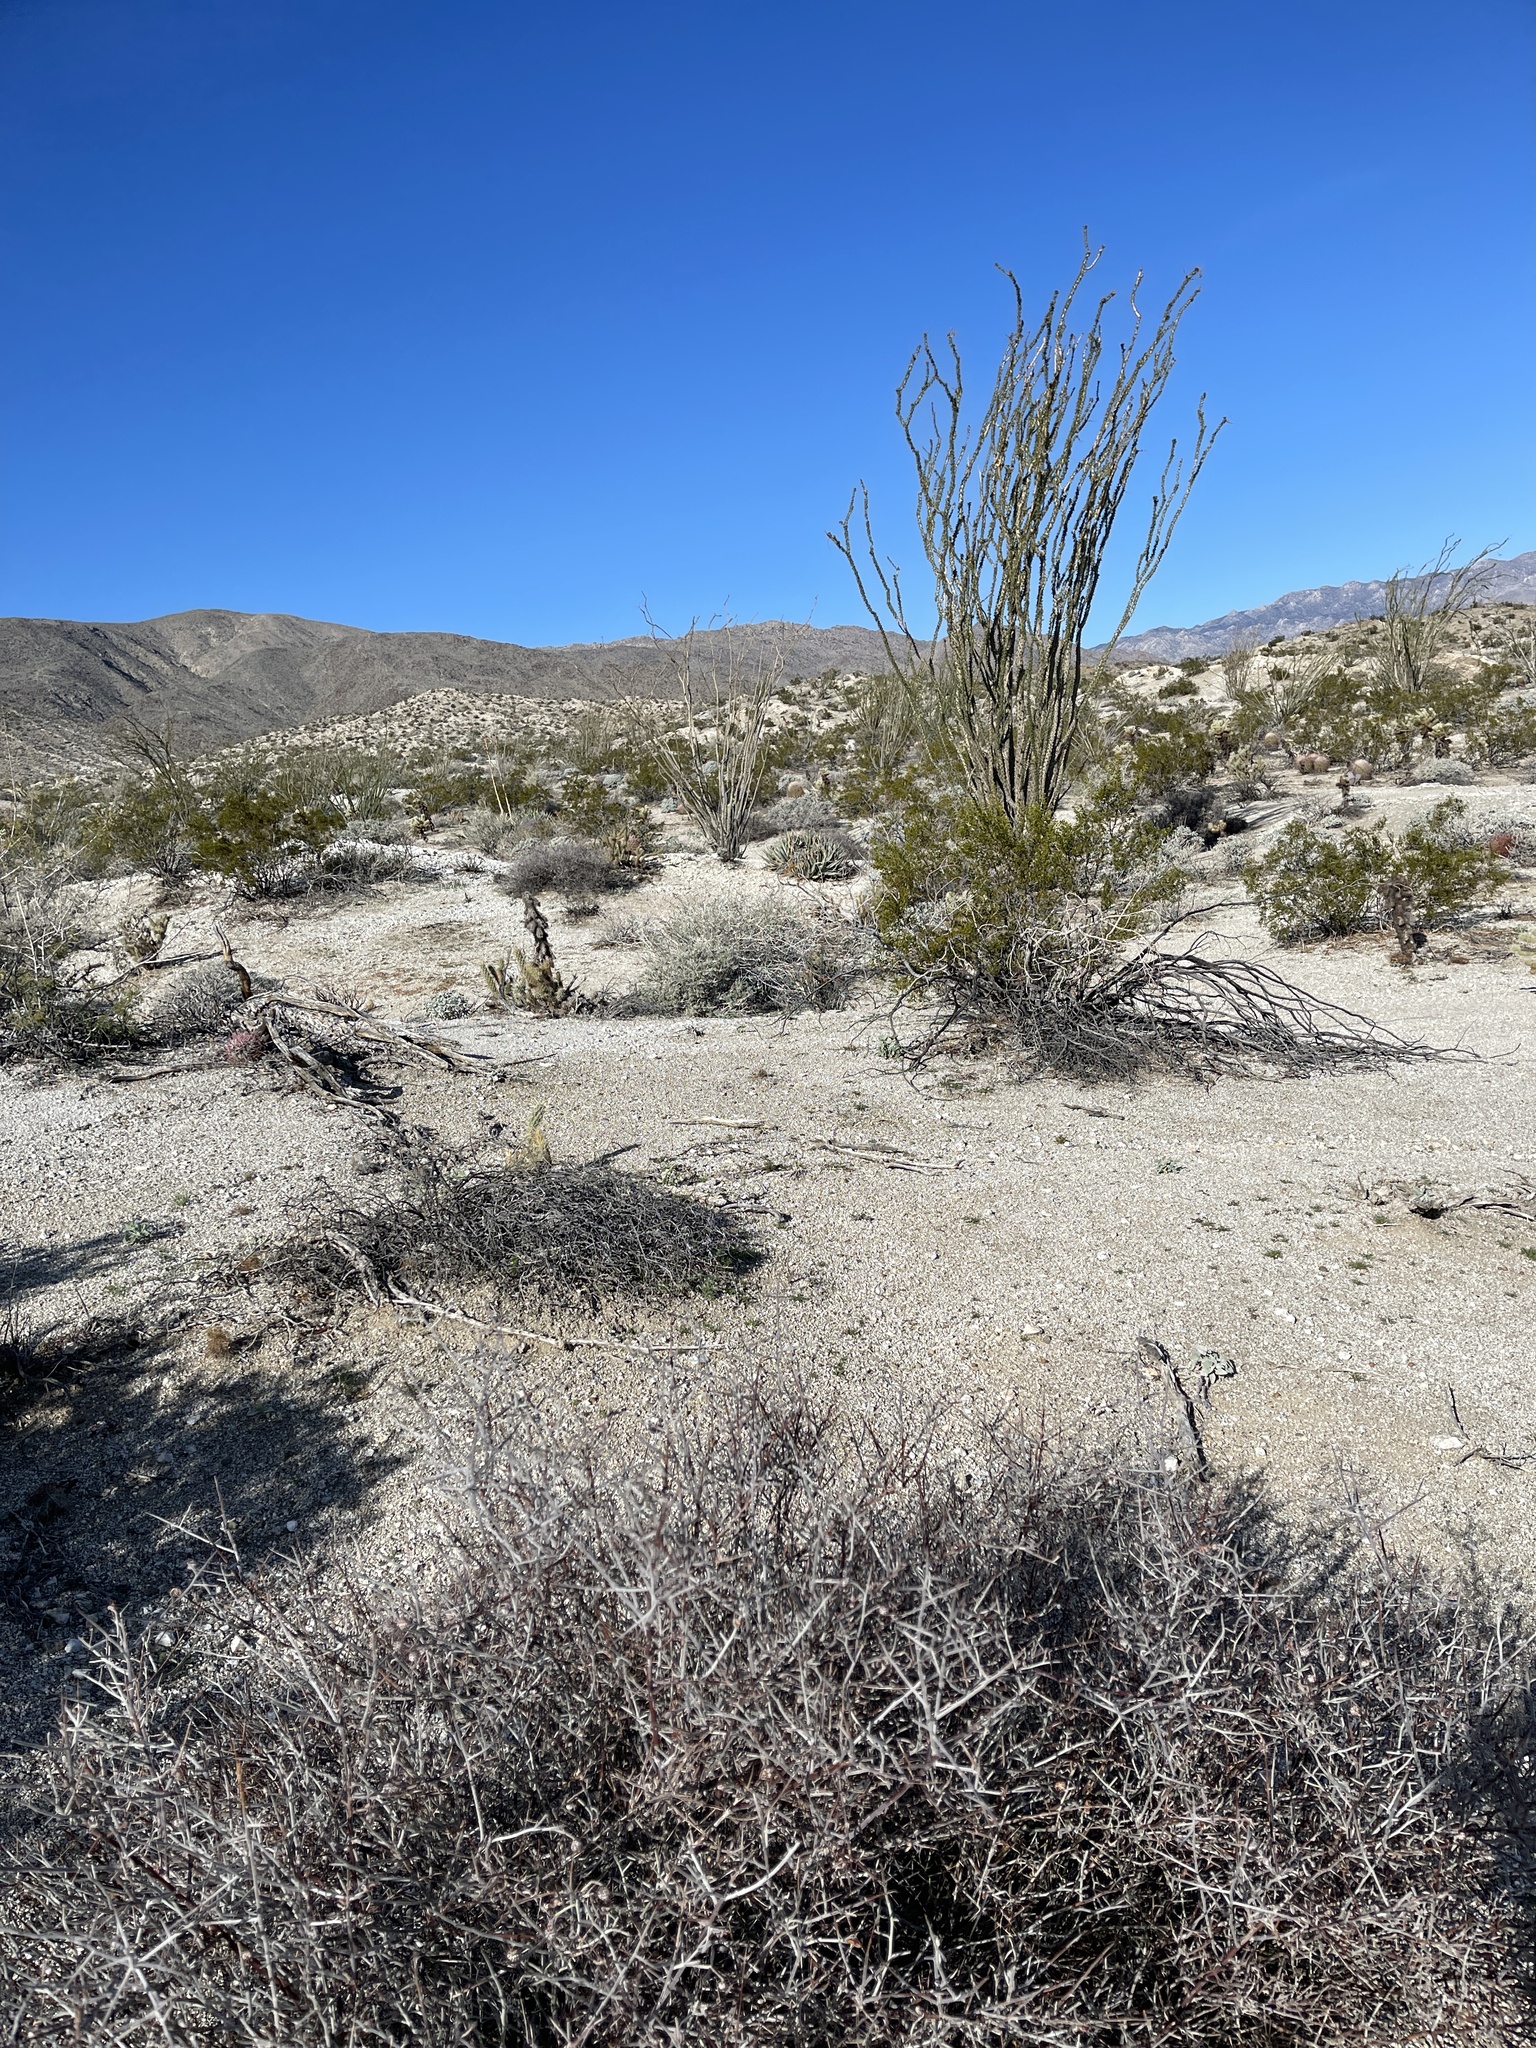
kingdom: Plantae
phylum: Tracheophyta
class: Magnoliopsida
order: Zygophyllales
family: Krameriaceae
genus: Krameria
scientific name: Krameria bicolor
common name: White ratany
